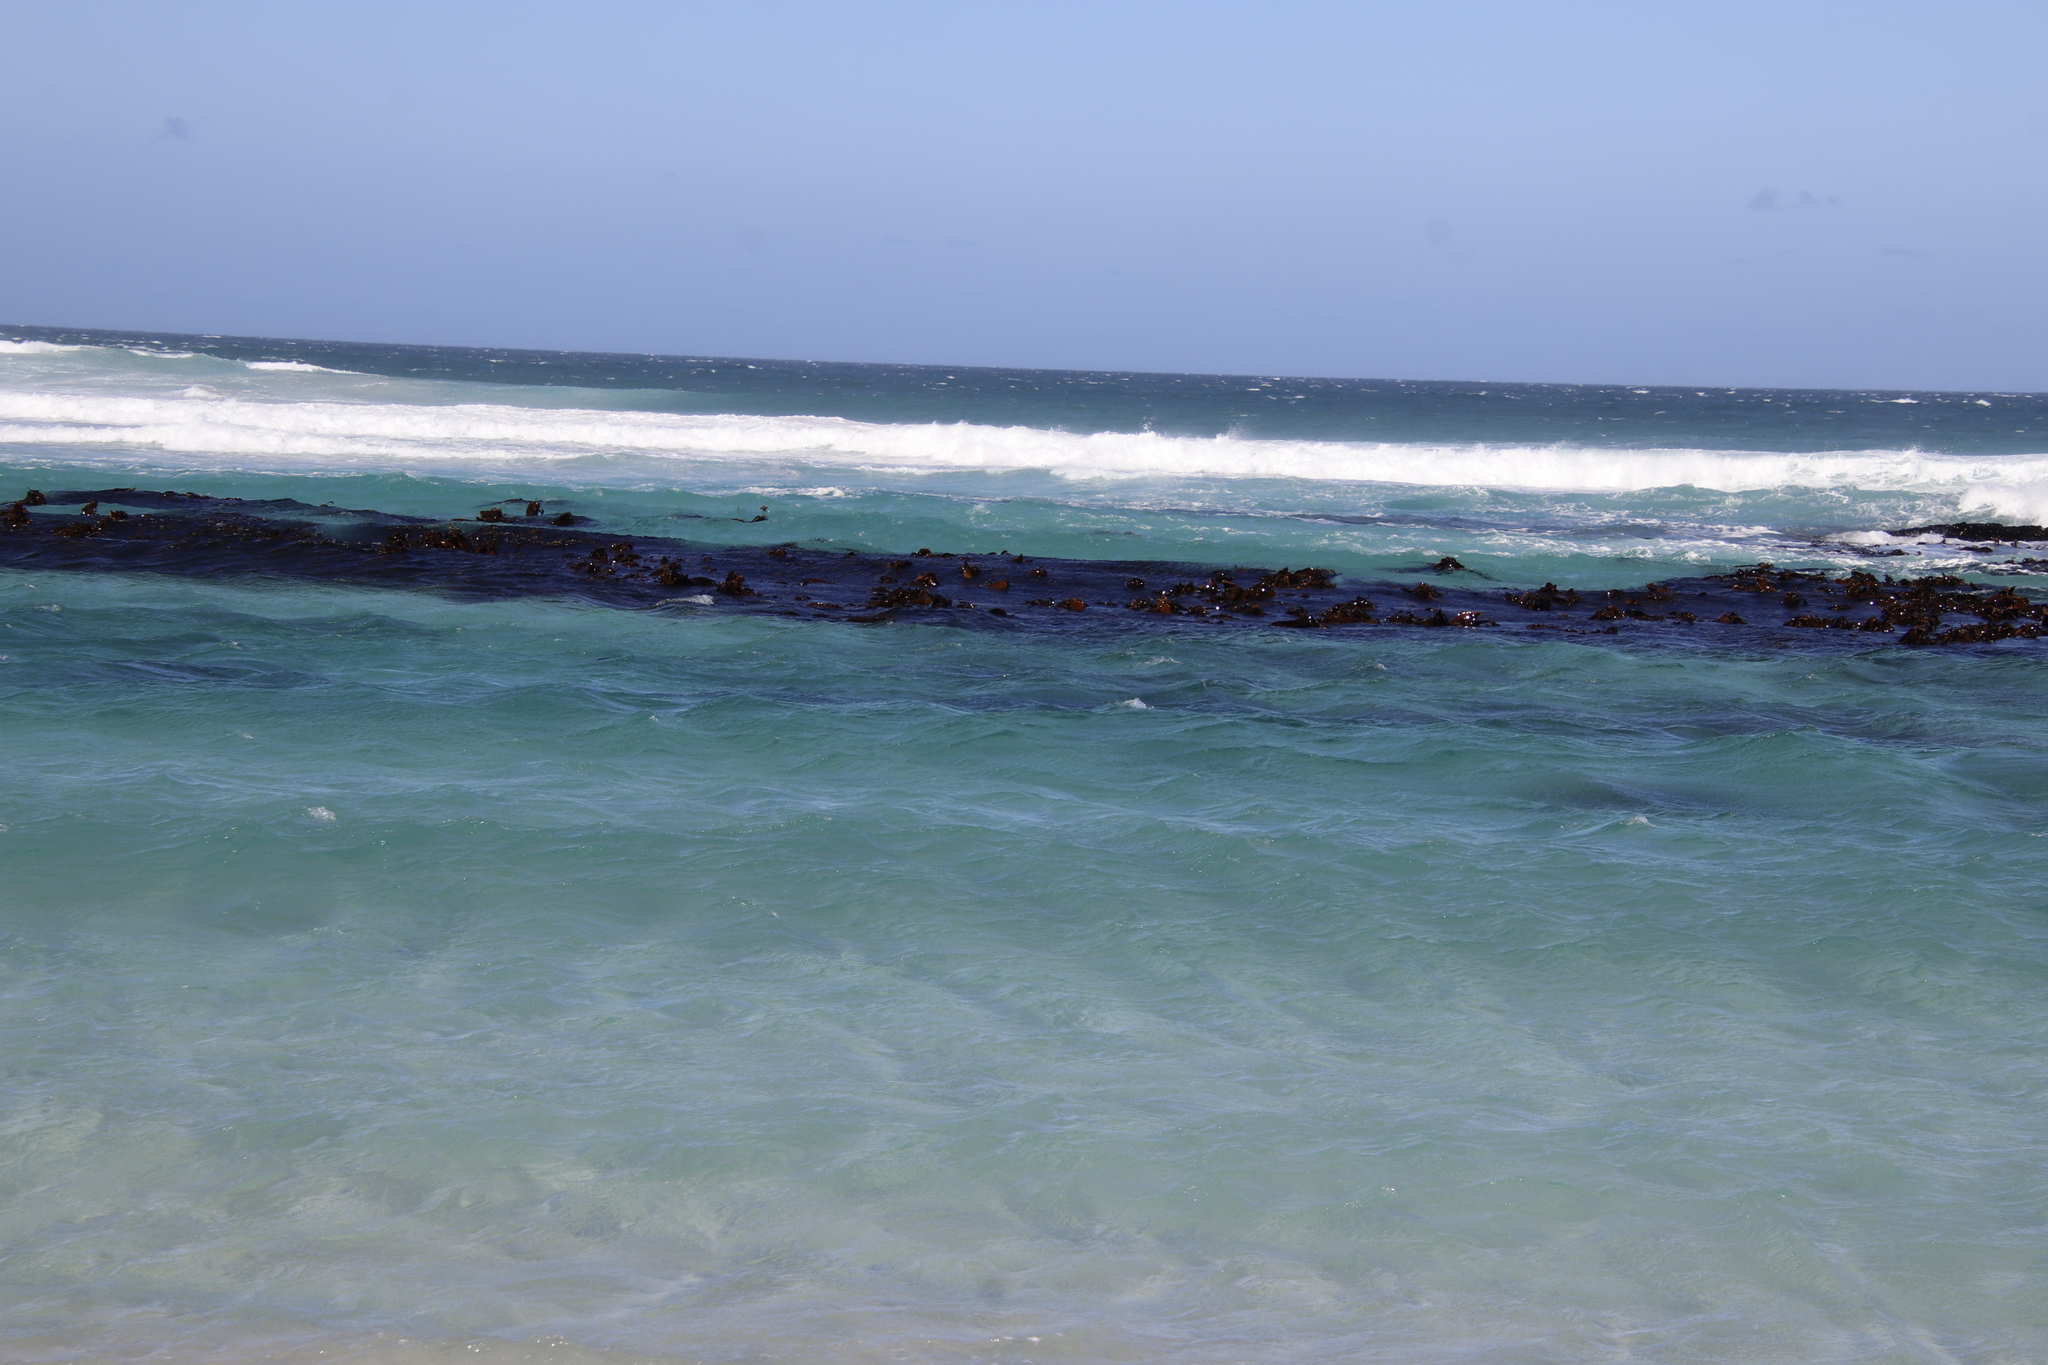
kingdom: Chromista
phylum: Ochrophyta
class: Phaeophyceae
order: Laminariales
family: Lessoniaceae
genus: Ecklonia
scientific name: Ecklonia
